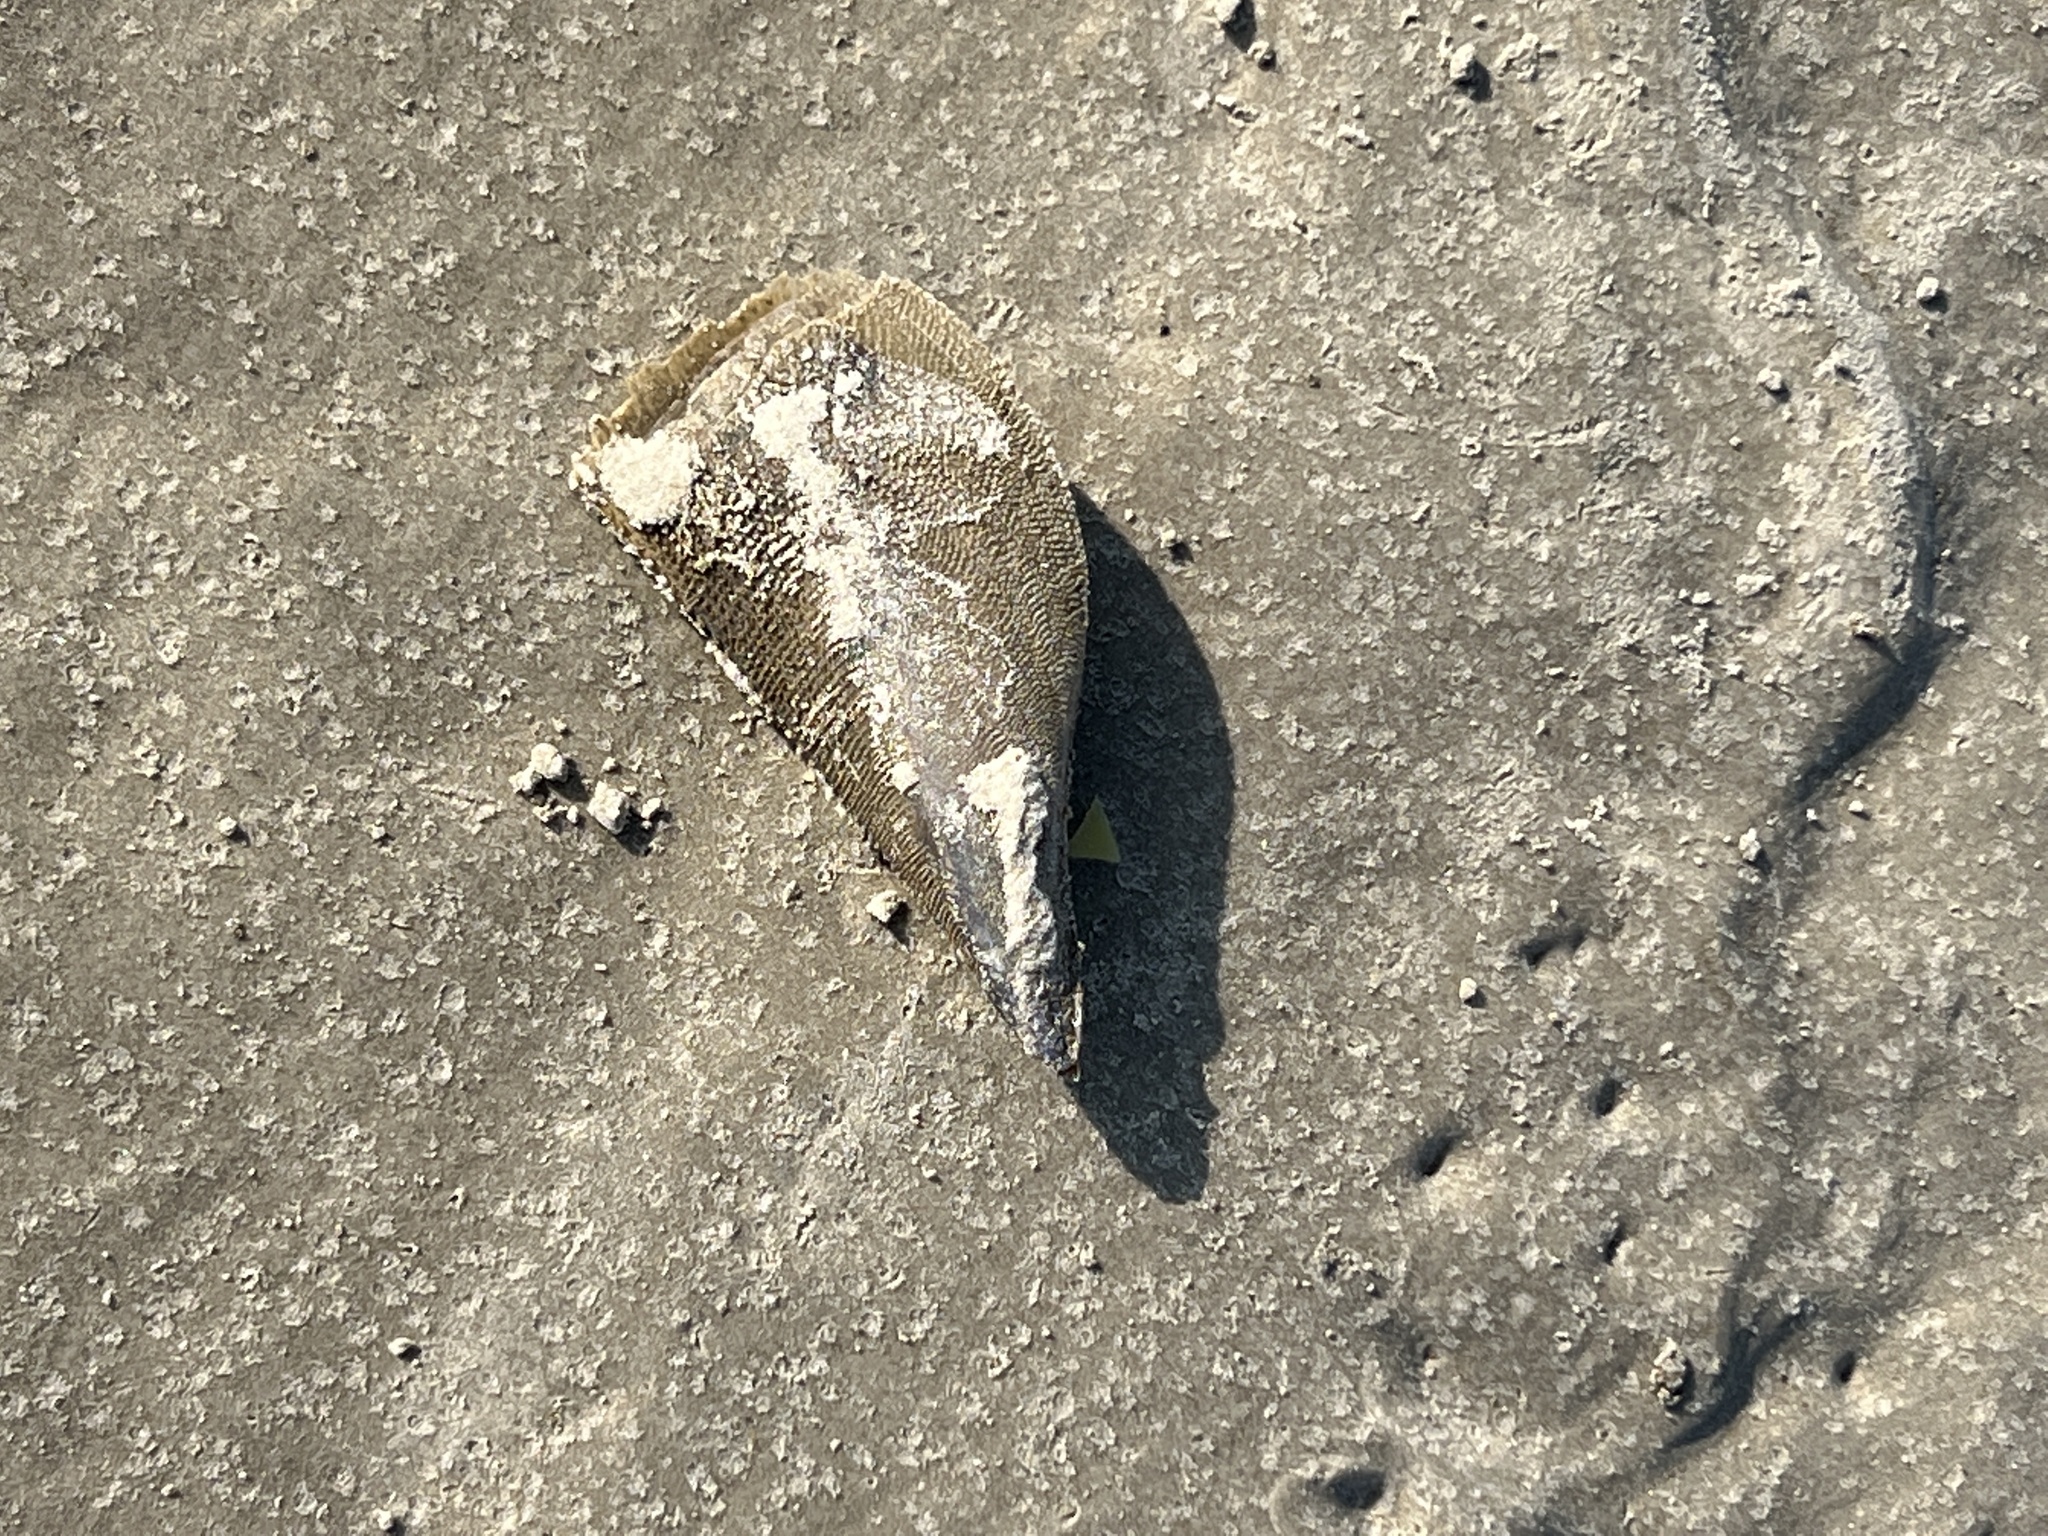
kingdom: Animalia
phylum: Mollusca
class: Bivalvia
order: Ostreida
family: Pinnidae
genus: Atrina
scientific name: Atrina serrata
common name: Saw-toothed penshell
